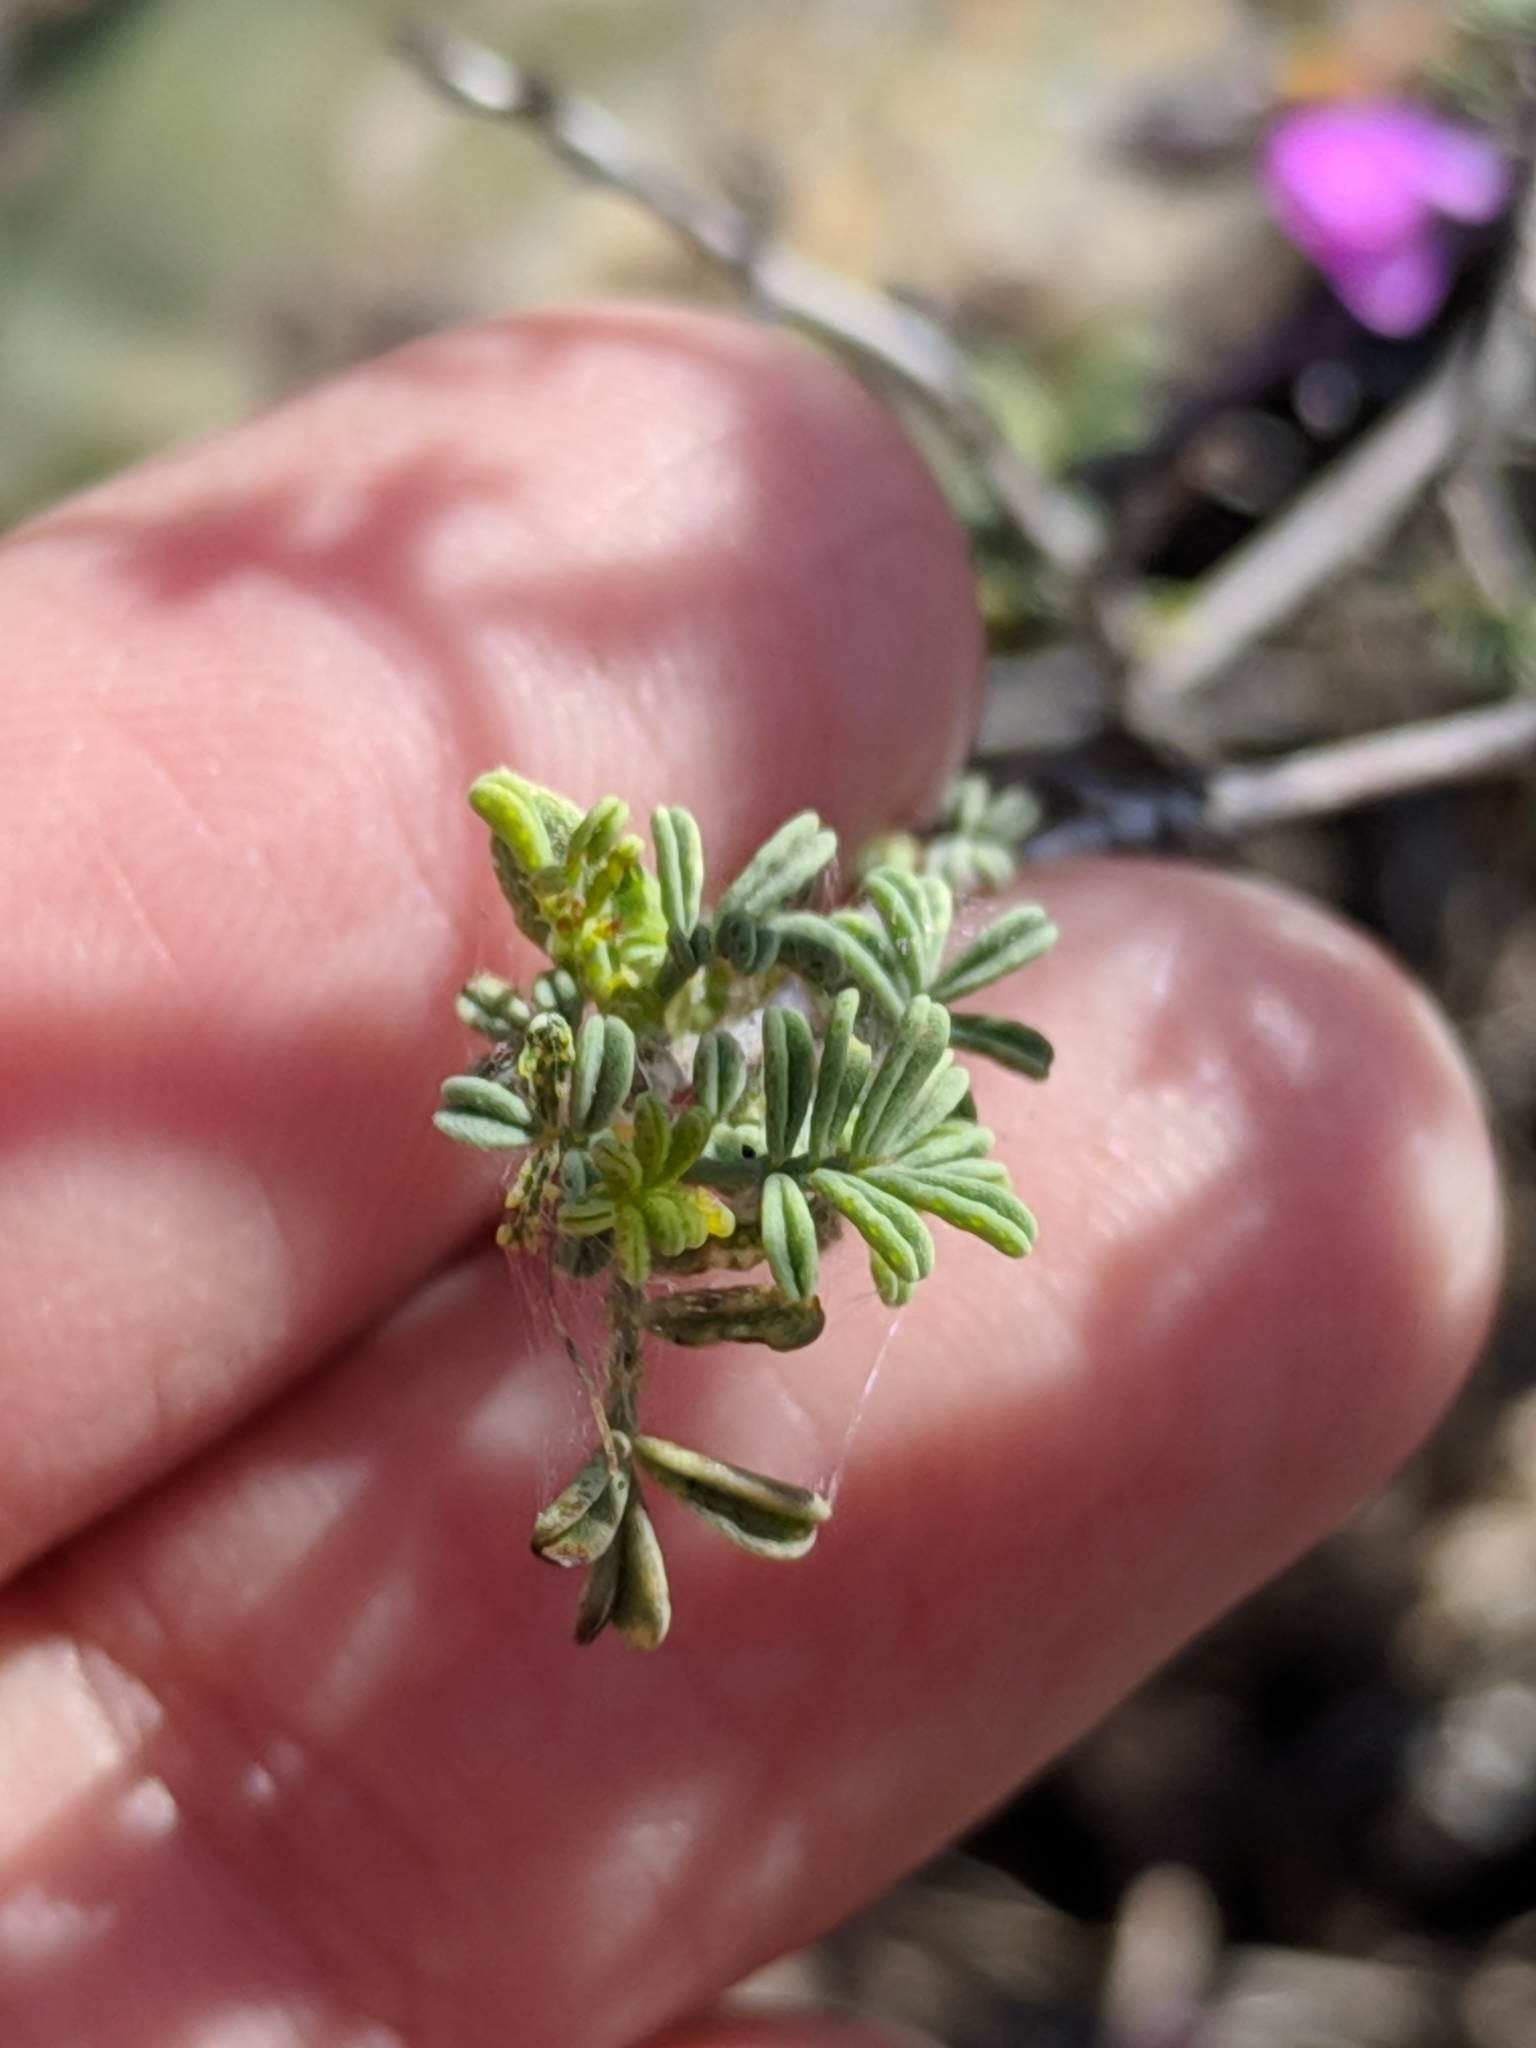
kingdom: Plantae
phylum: Tracheophyta
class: Magnoliopsida
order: Fabales
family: Fabaceae
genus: Dalea
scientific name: Dalea formosa
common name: Feather-plume dalea
